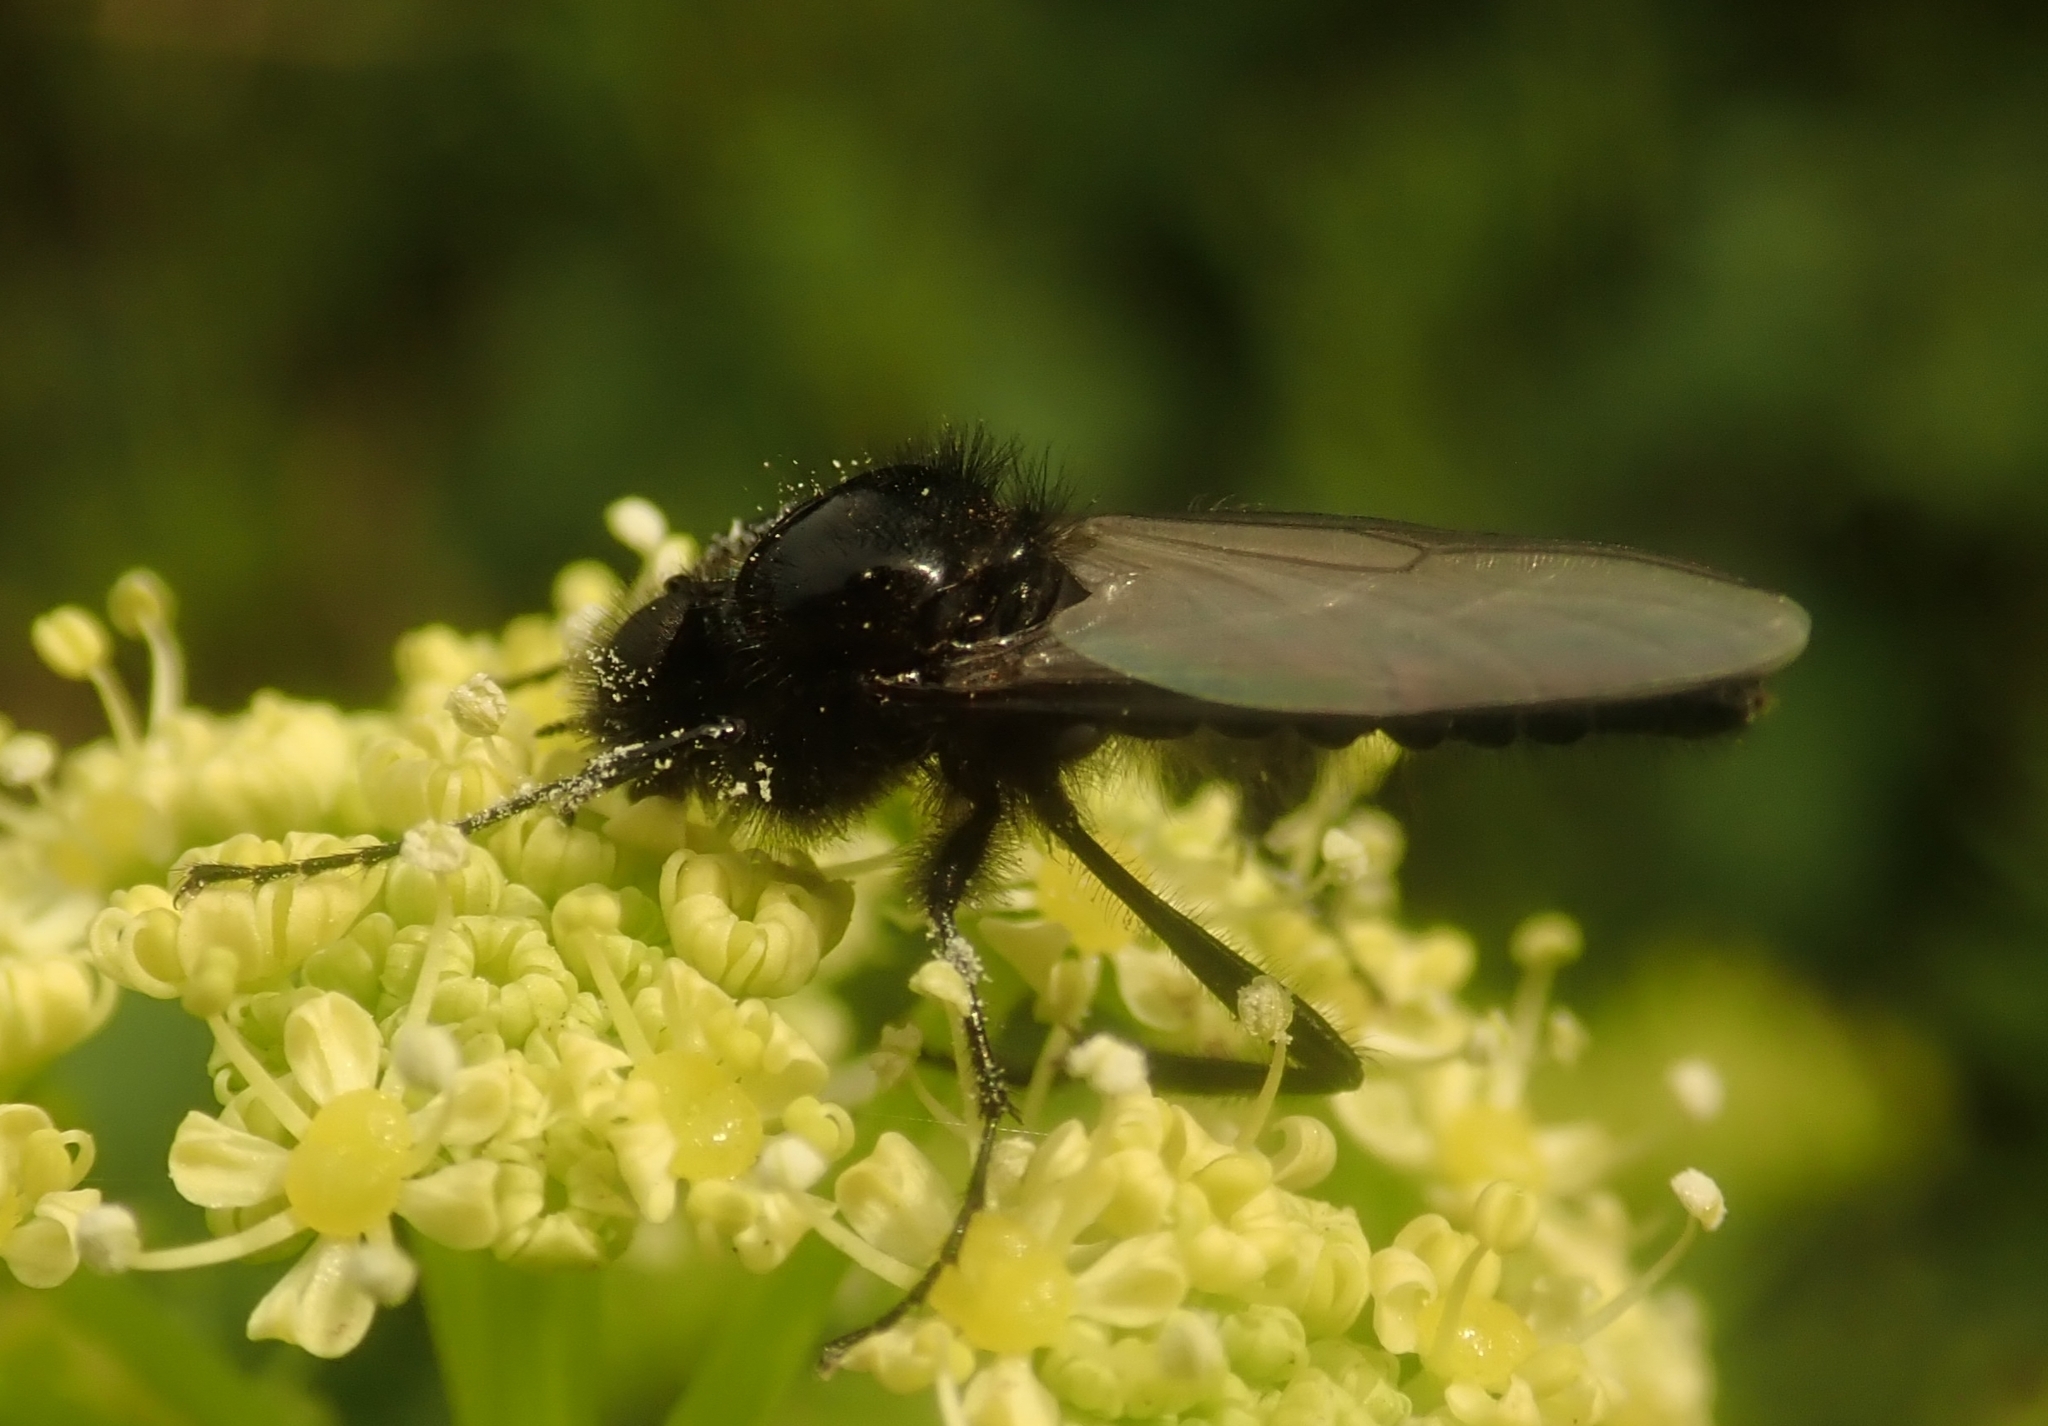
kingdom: Animalia
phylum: Arthropoda
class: Insecta
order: Diptera
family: Bibionidae
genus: Bibio
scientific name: Bibio marci
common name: St marks fly
